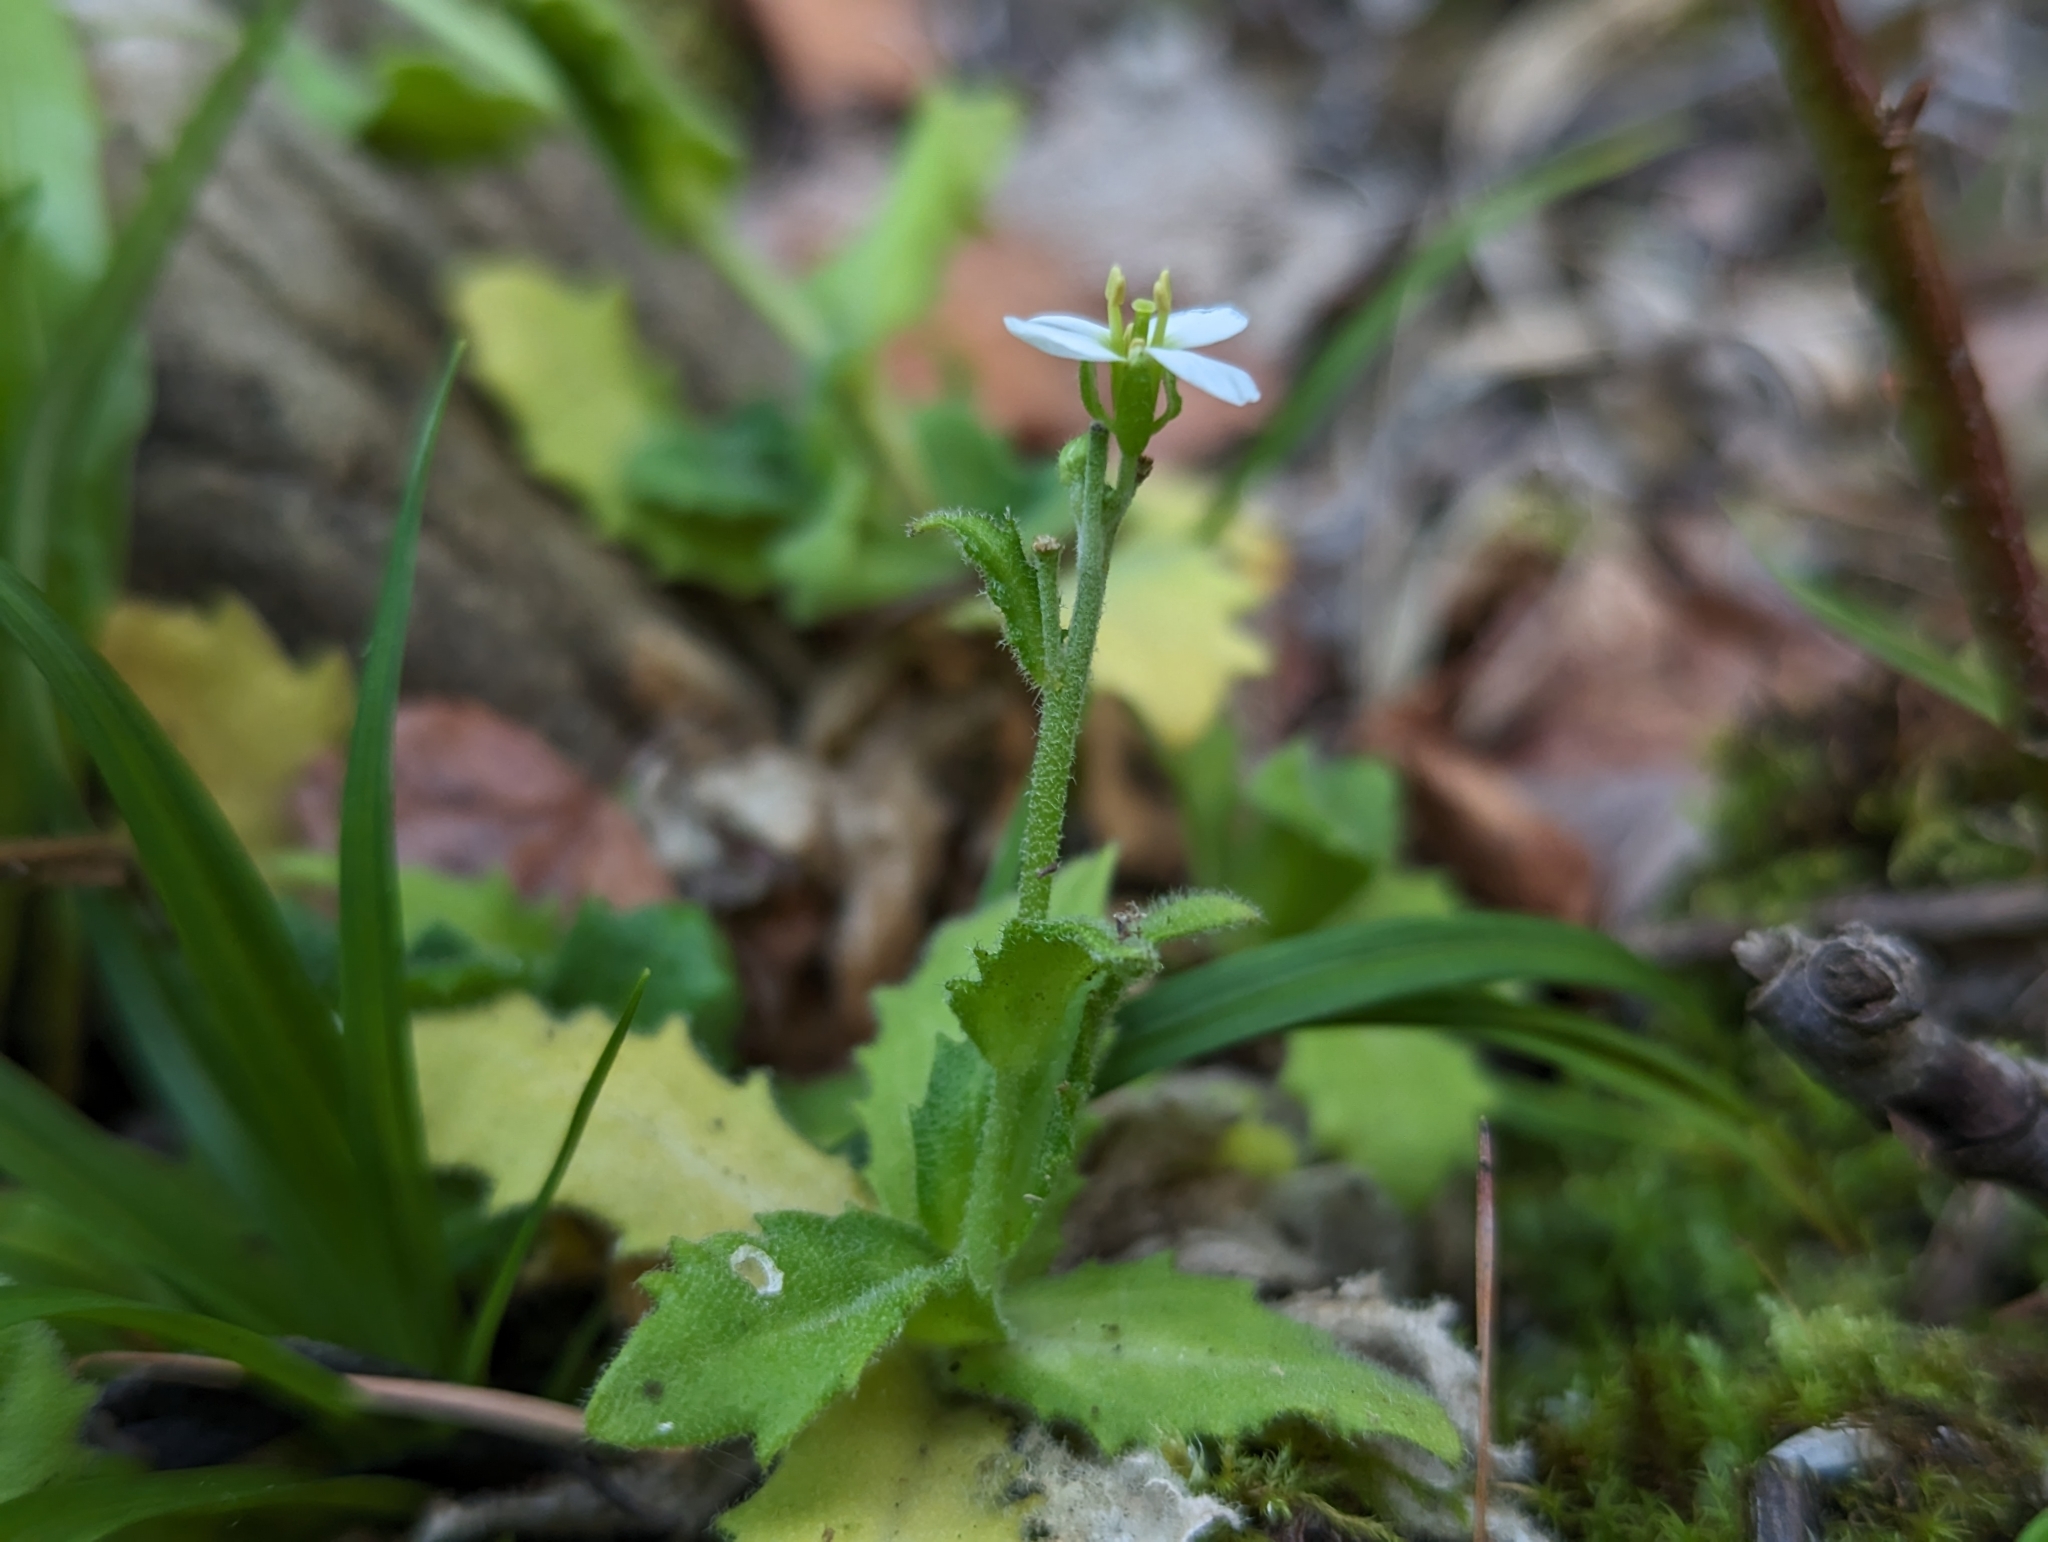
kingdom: Plantae
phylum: Tracheophyta
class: Magnoliopsida
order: Brassicales
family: Brassicaceae
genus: Arabis
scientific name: Arabis alpina
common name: Alpine rock-cress
